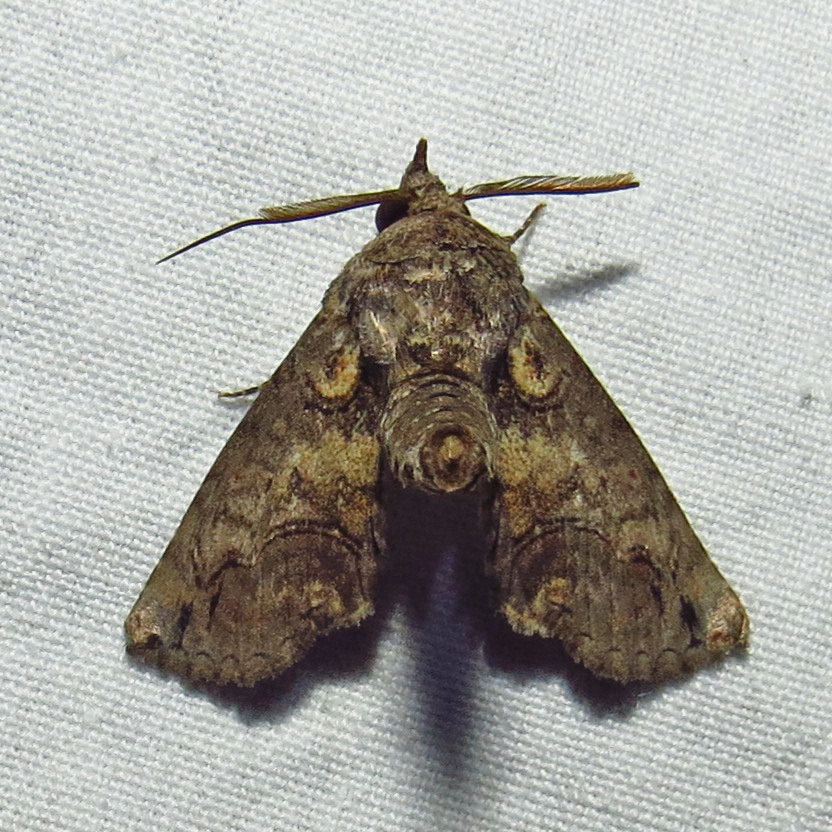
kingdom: Animalia
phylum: Arthropoda
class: Insecta
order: Lepidoptera
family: Euteliidae
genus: Paectes
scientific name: Paectes abrostoloides
